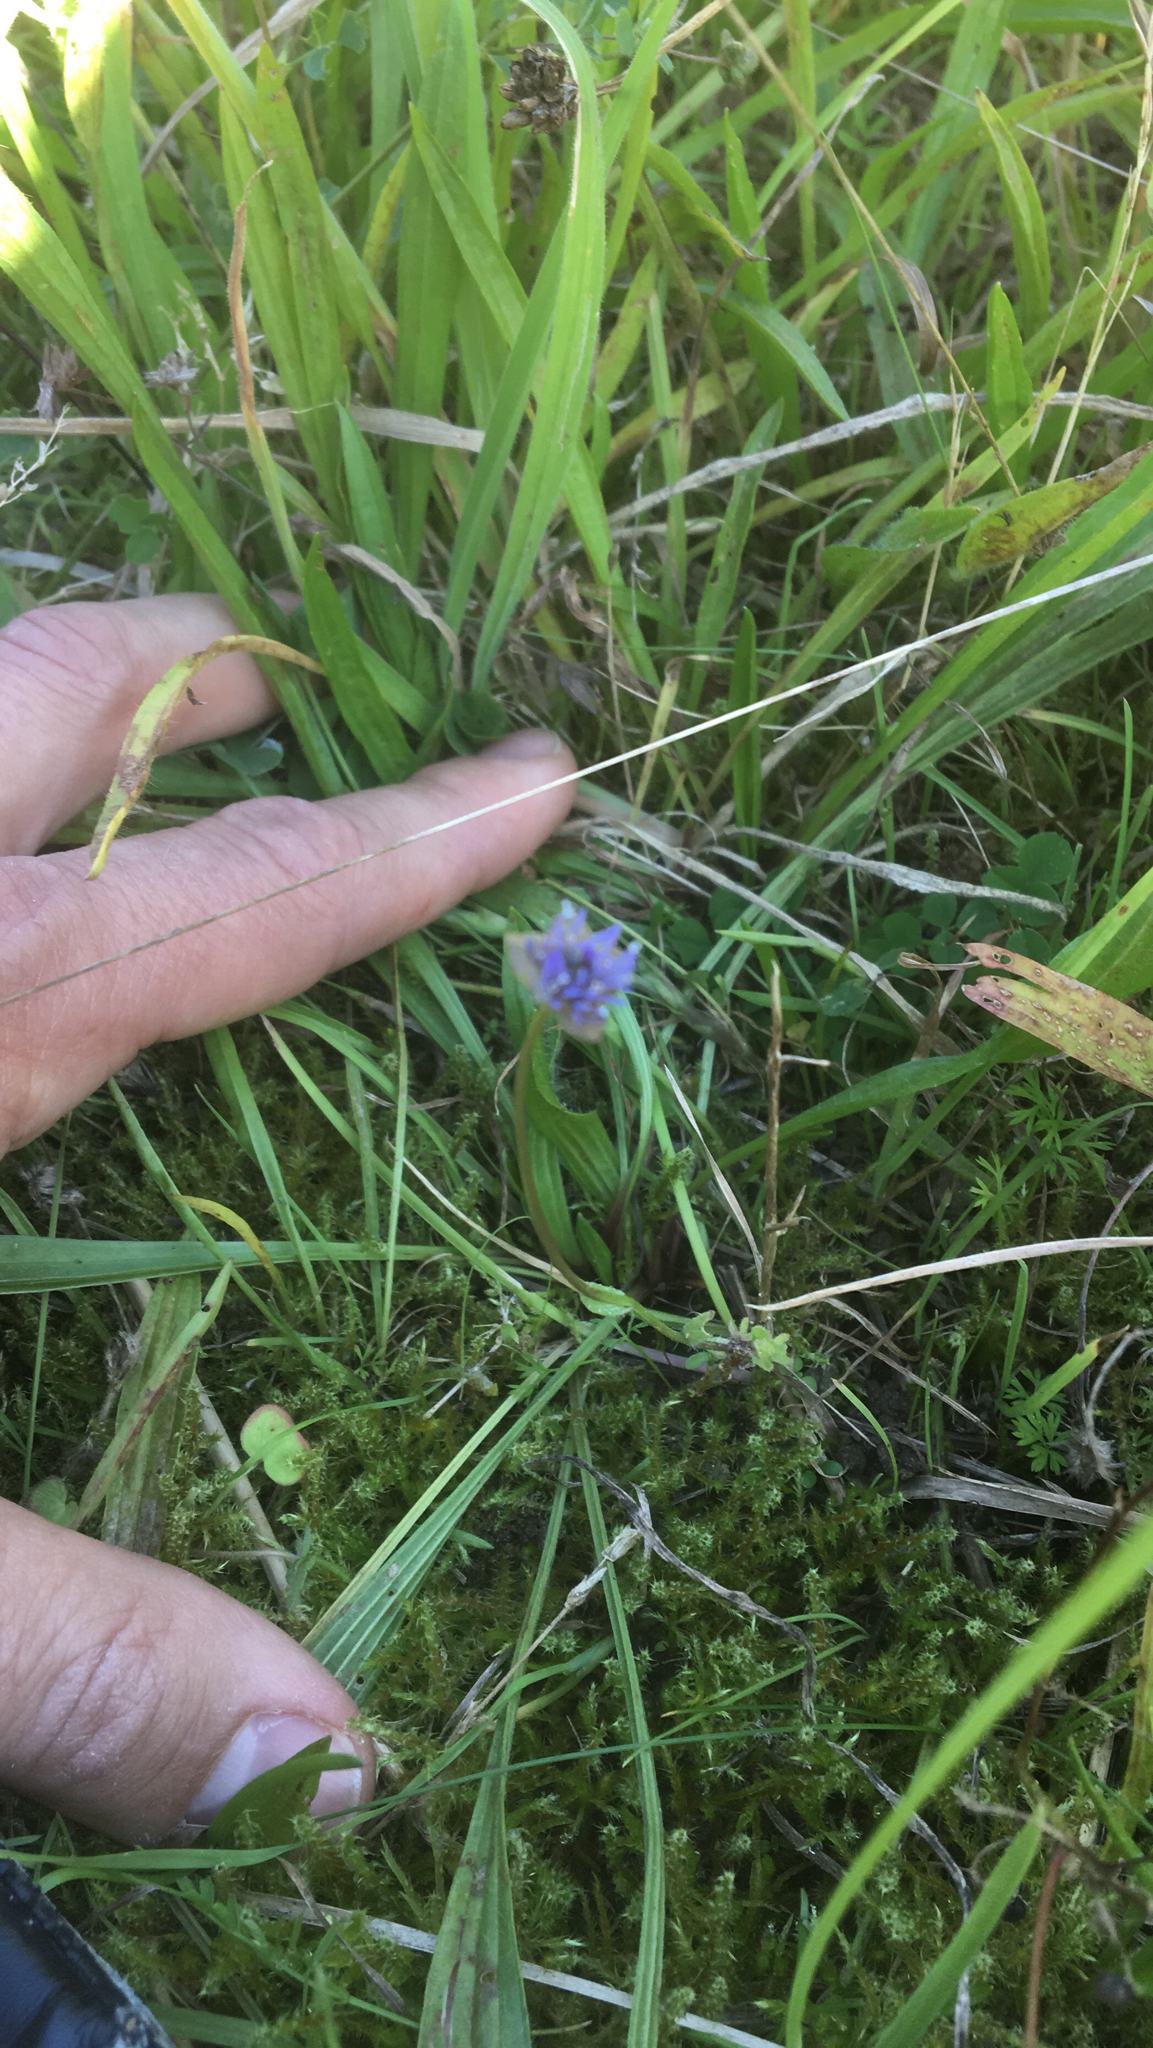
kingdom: Plantae
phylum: Tracheophyta
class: Magnoliopsida
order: Asterales
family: Campanulaceae
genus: Jasione
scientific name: Jasione montana
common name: Sheep's-bit
